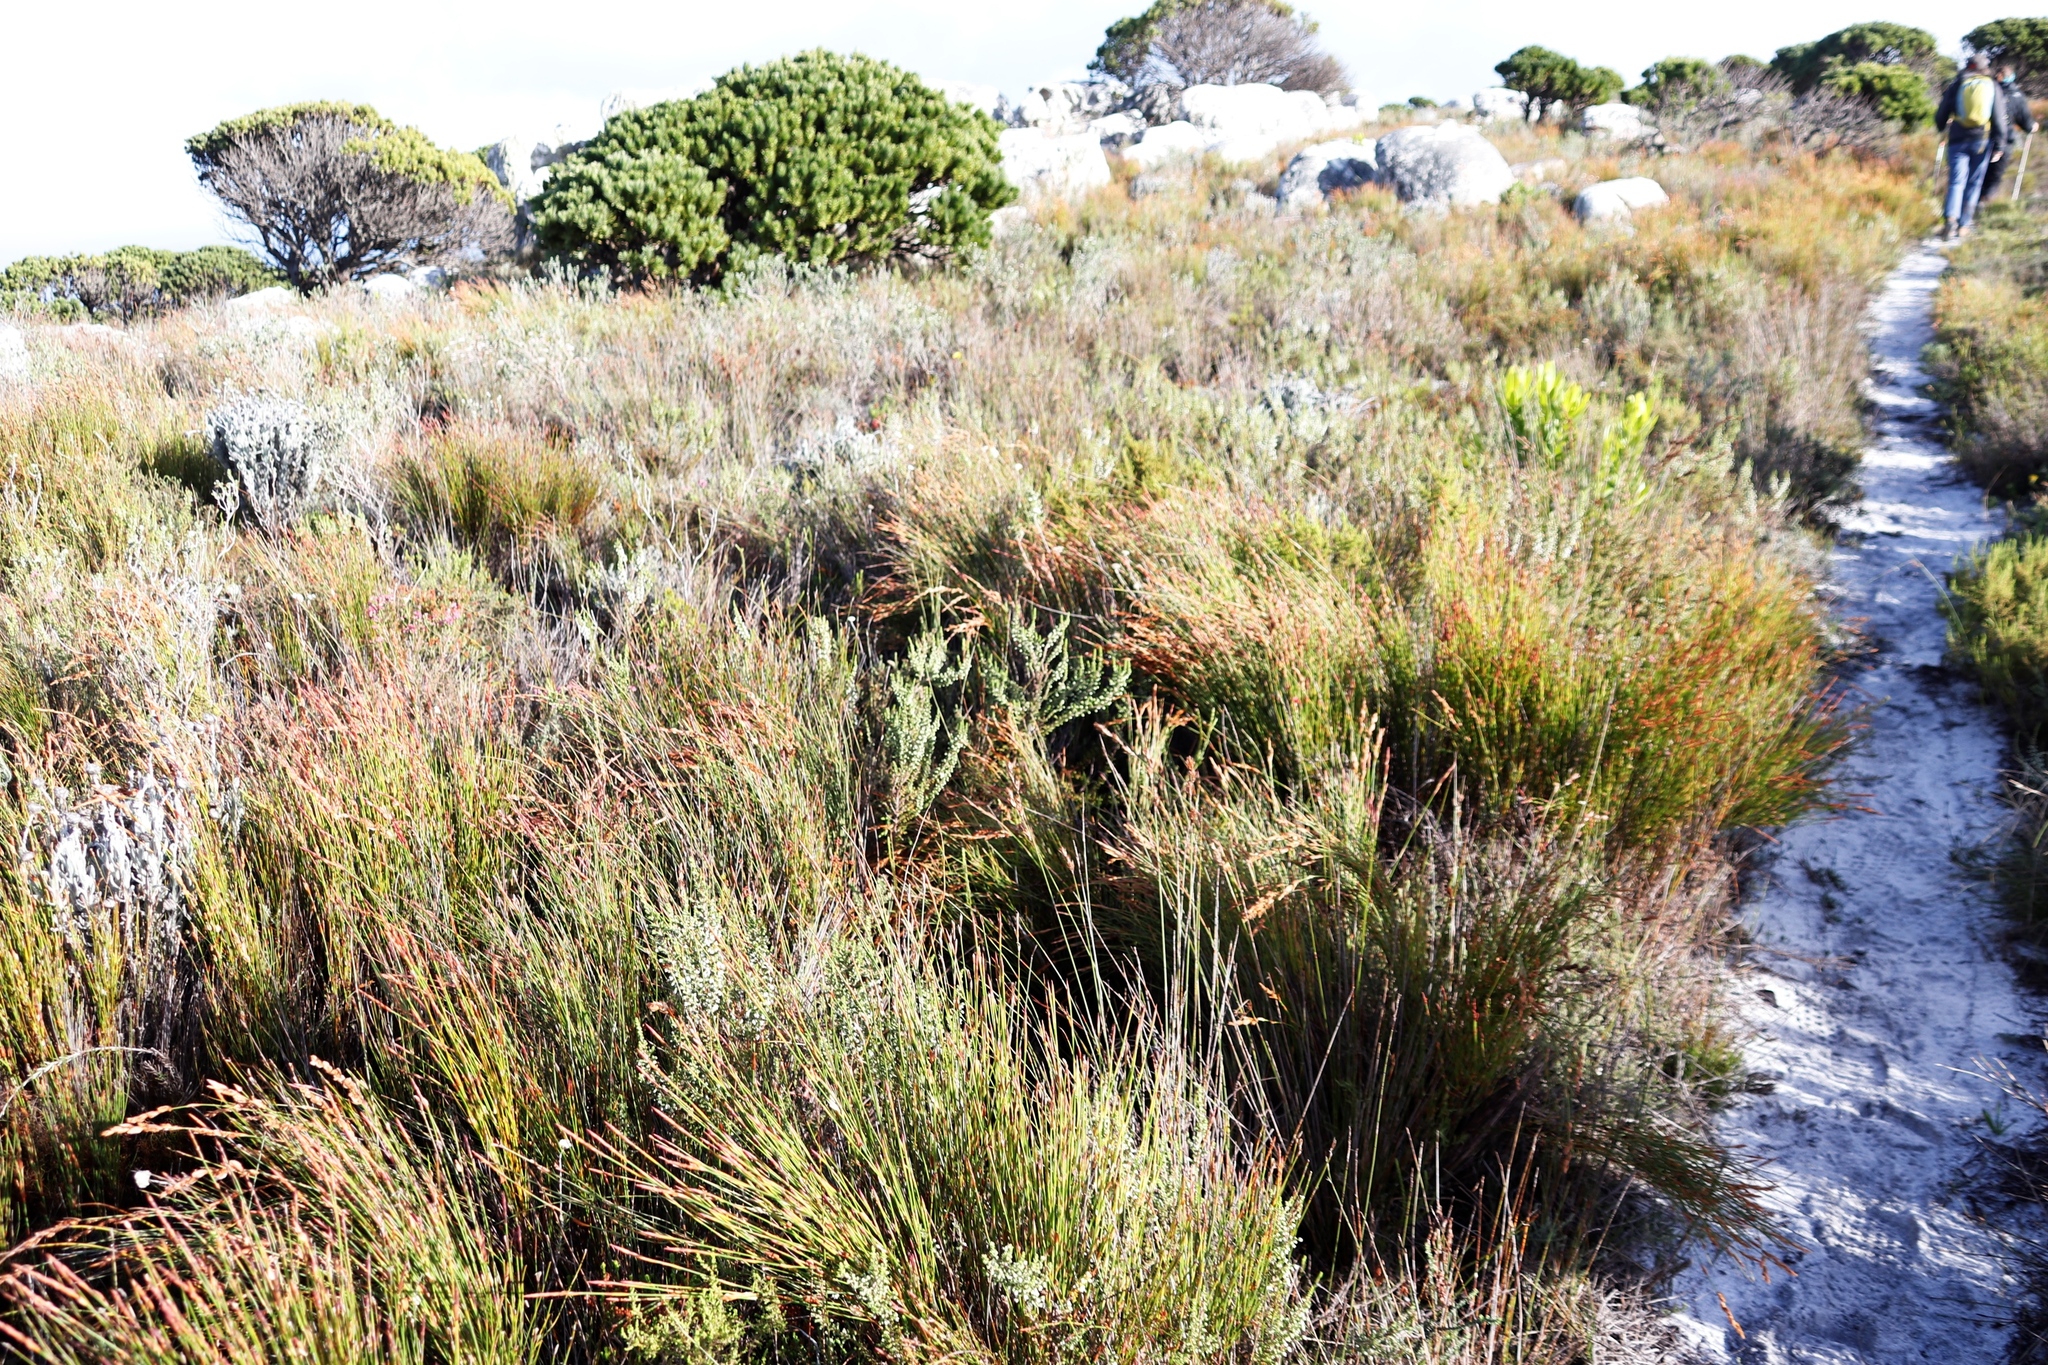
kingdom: Plantae
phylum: Tracheophyta
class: Liliopsida
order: Poales
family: Restionaceae
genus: Elegia
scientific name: Elegia stipularis
